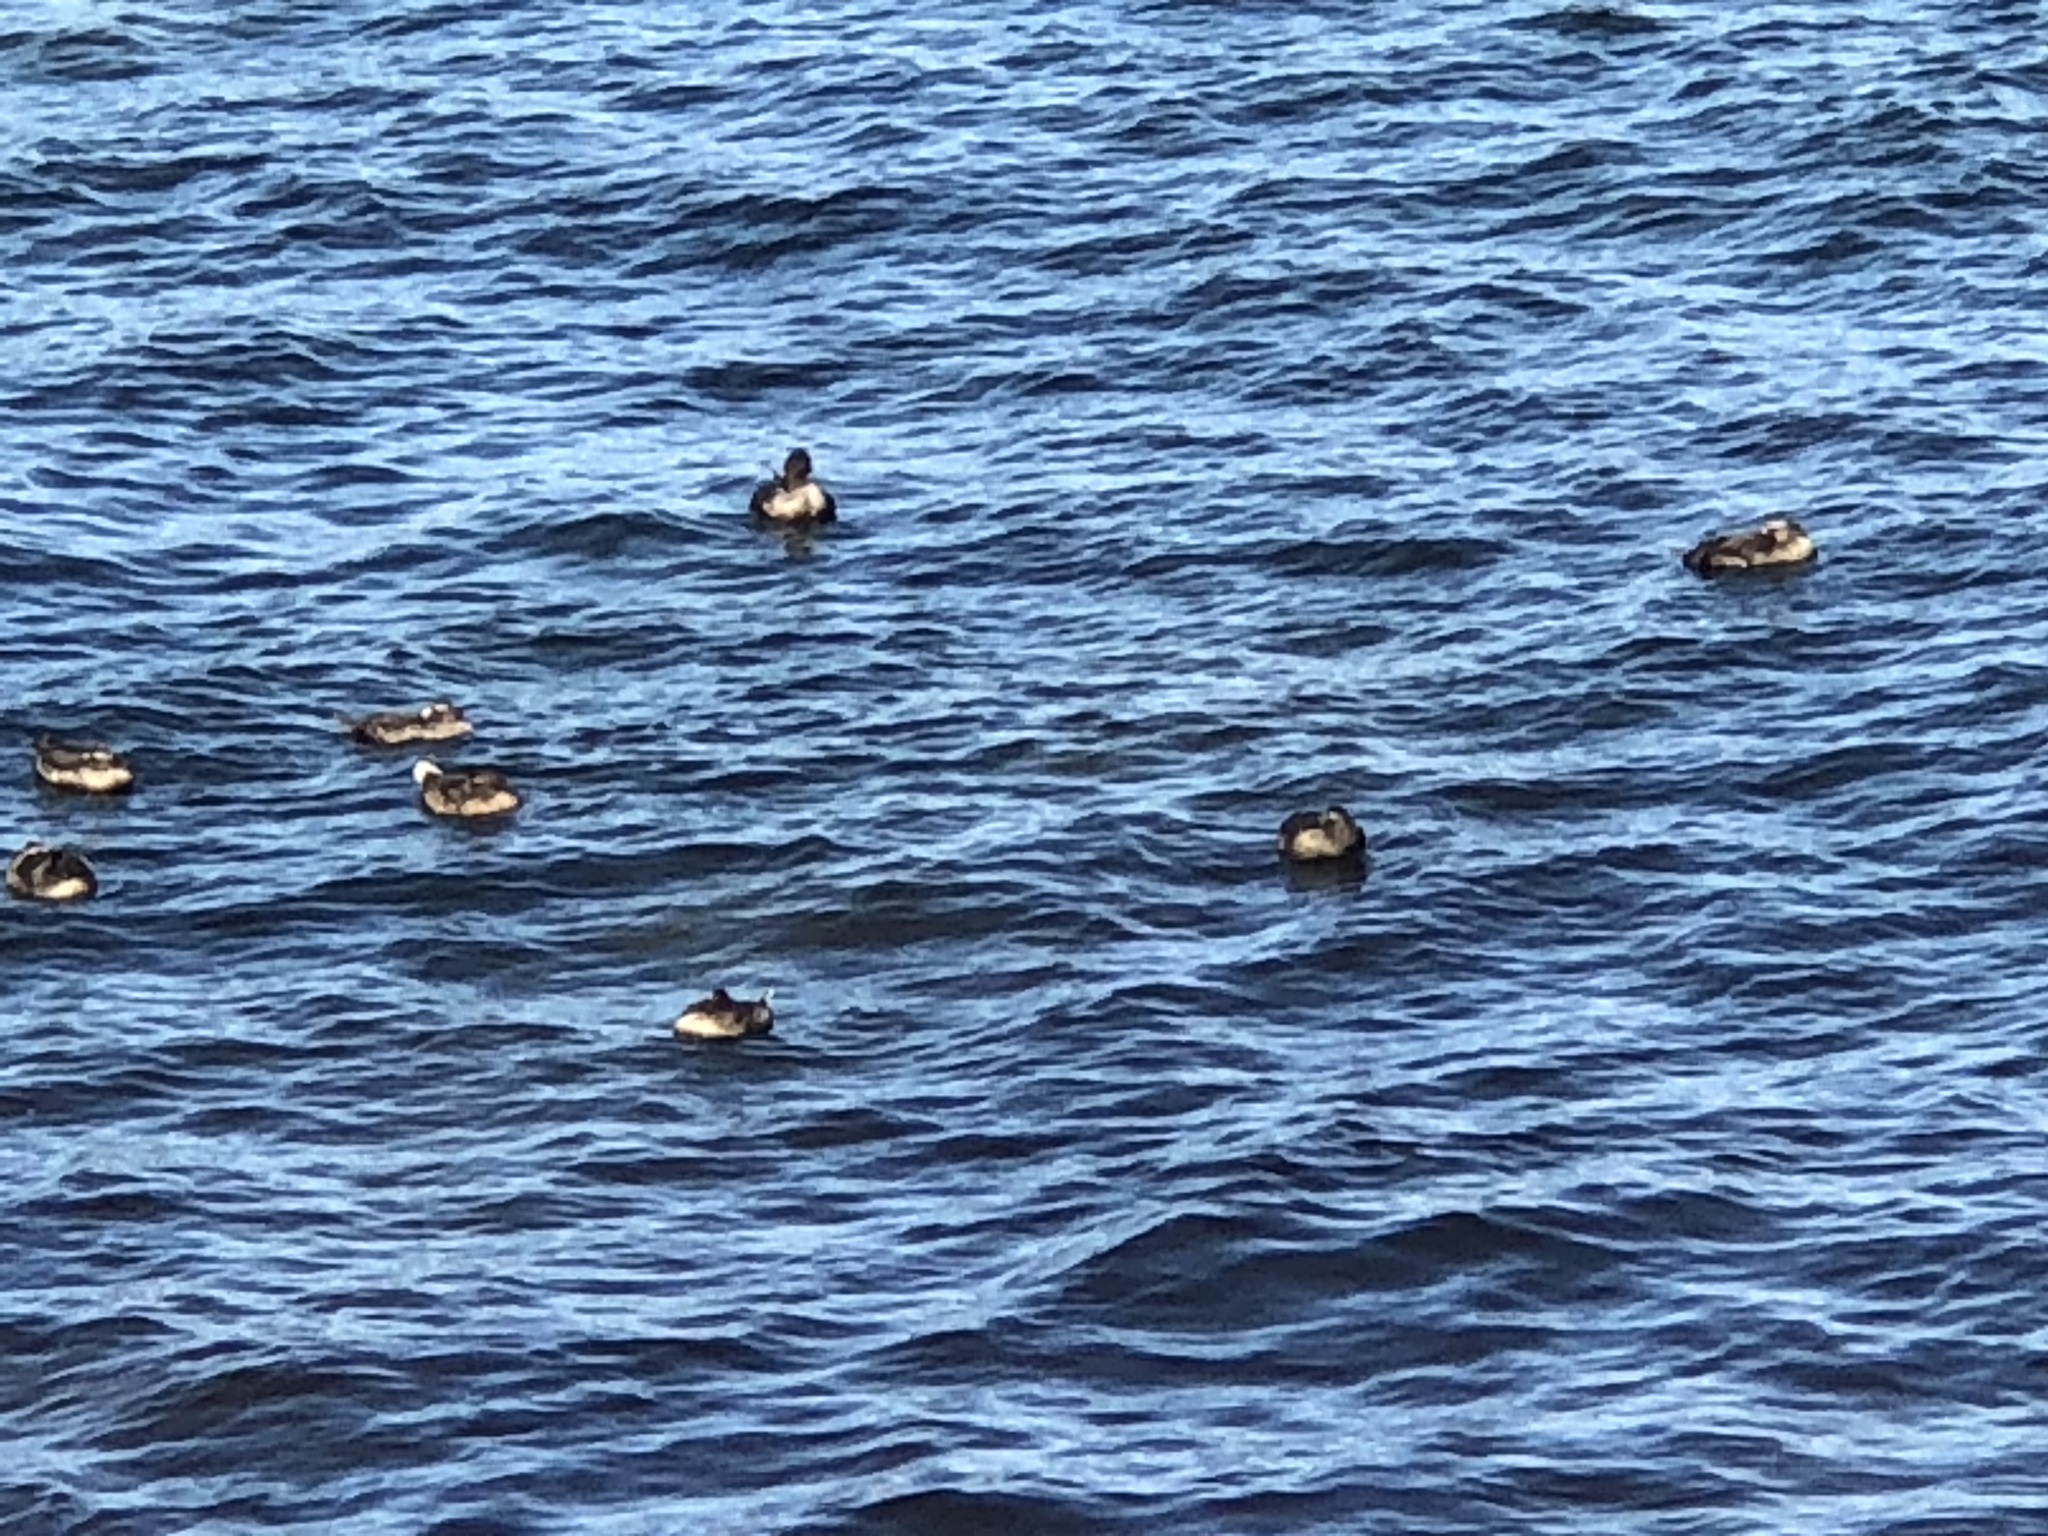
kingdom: Animalia
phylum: Chordata
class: Aves
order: Anseriformes
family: Anatidae
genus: Somateria
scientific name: Somateria mollissima
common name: Common eider
